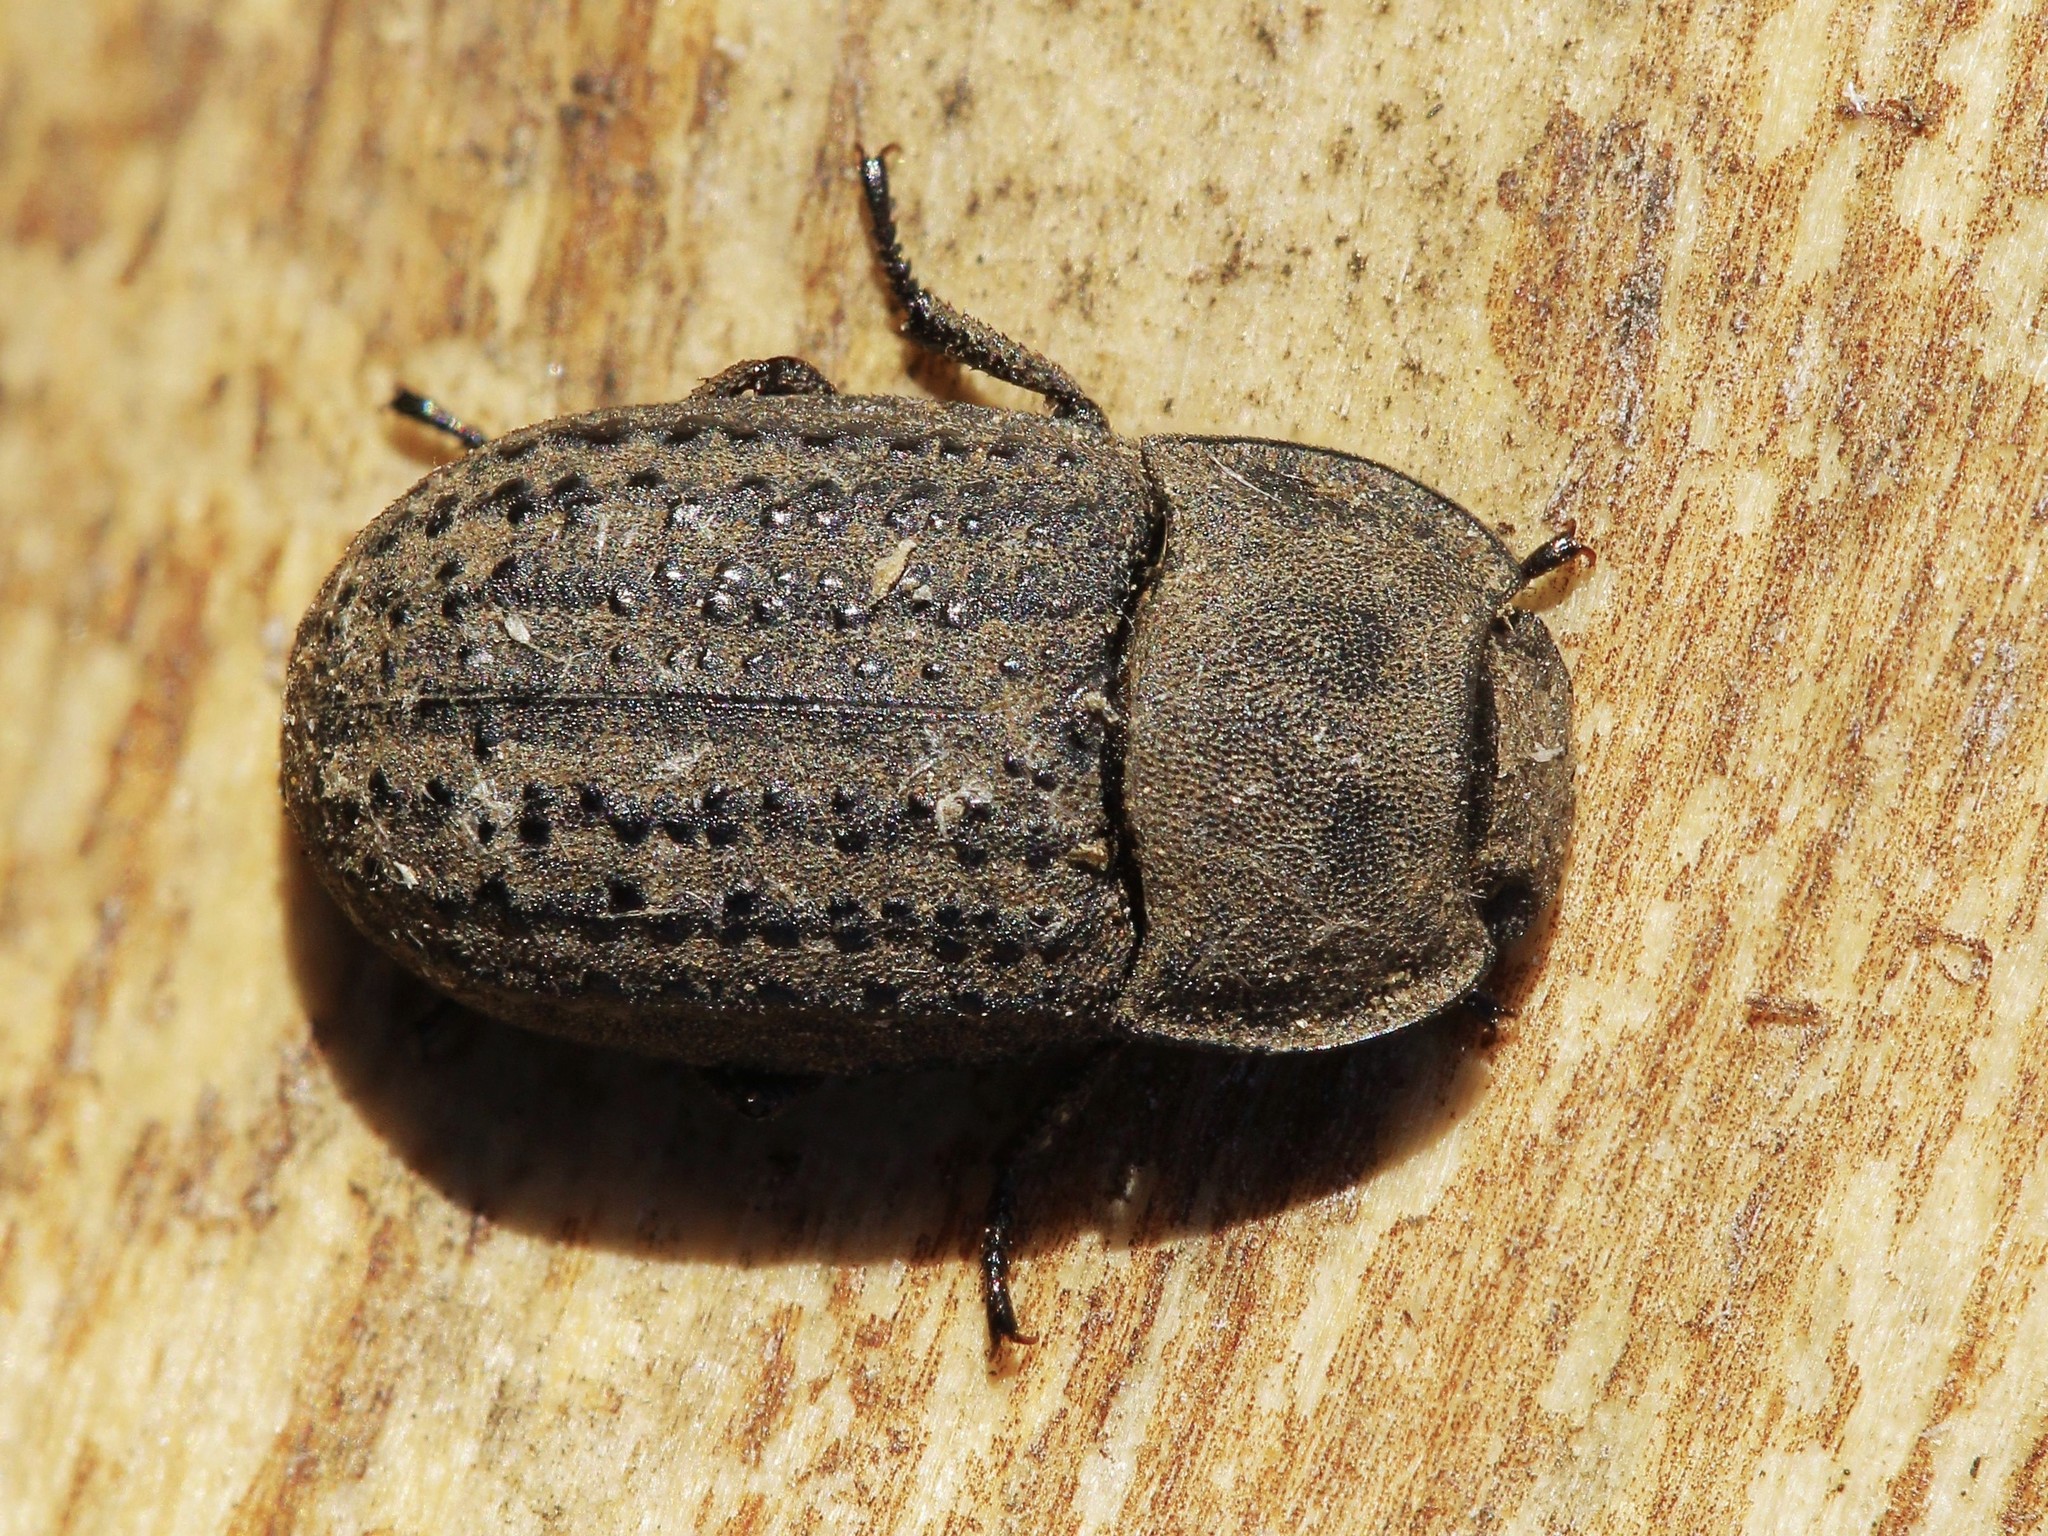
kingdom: Animalia
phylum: Arthropoda
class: Insecta
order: Coleoptera
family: Tenebrionidae
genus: Opatrum
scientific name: Opatrum sabulosum
